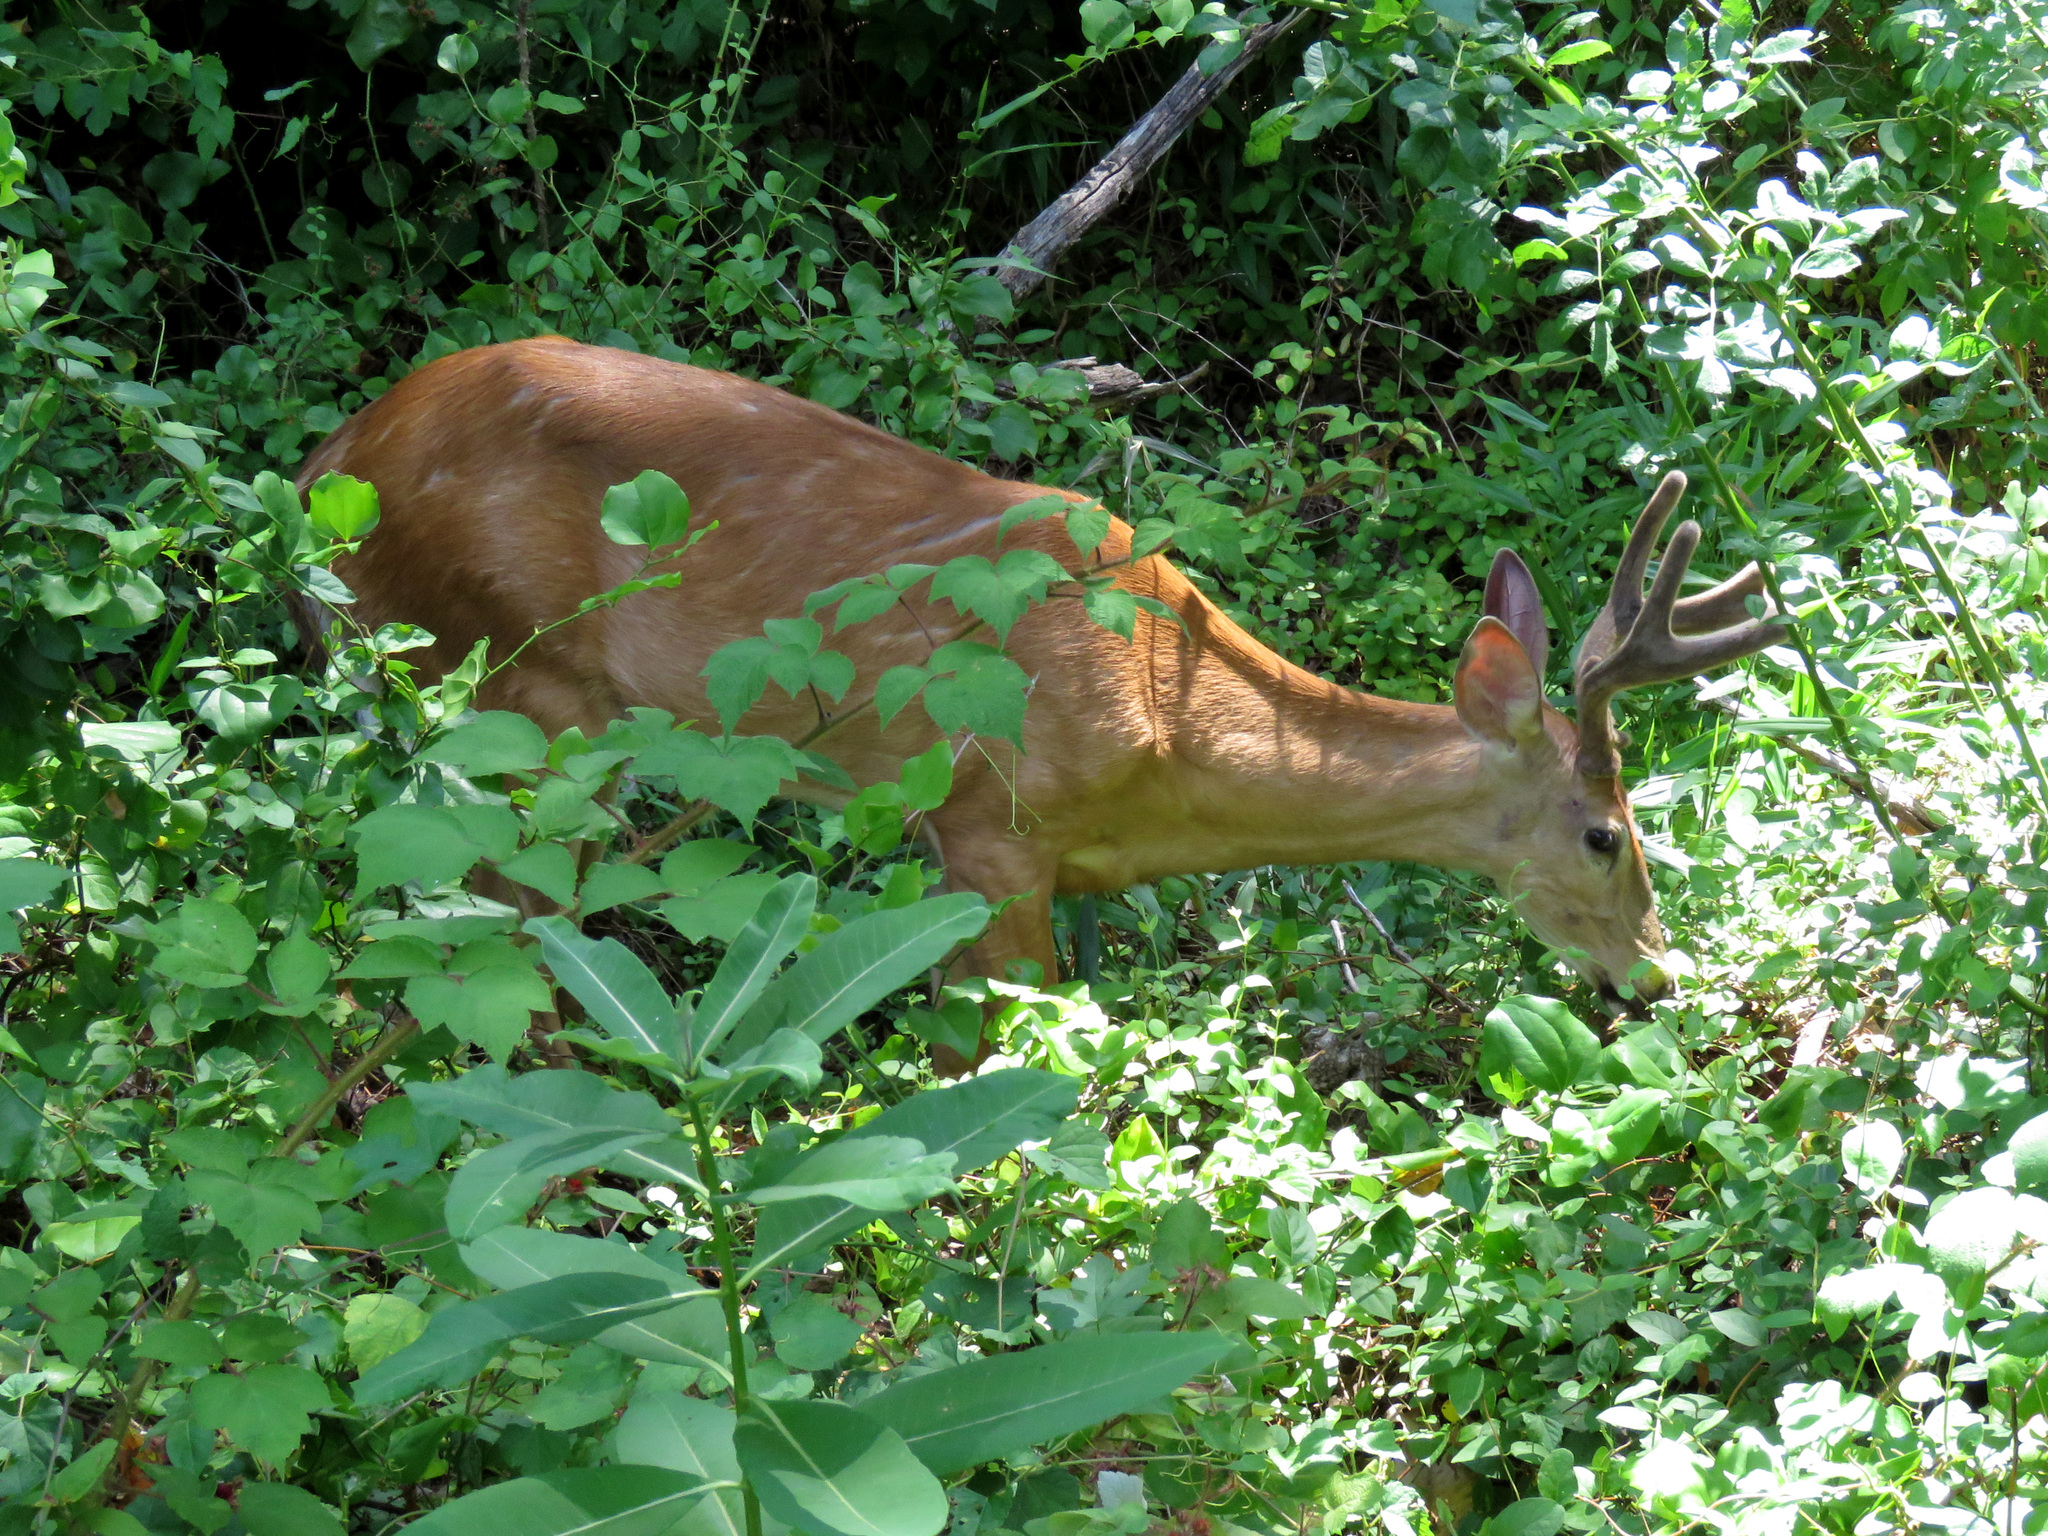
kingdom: Animalia
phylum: Chordata
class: Mammalia
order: Artiodactyla
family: Cervidae
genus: Odocoileus
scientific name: Odocoileus virginianus
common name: White-tailed deer
